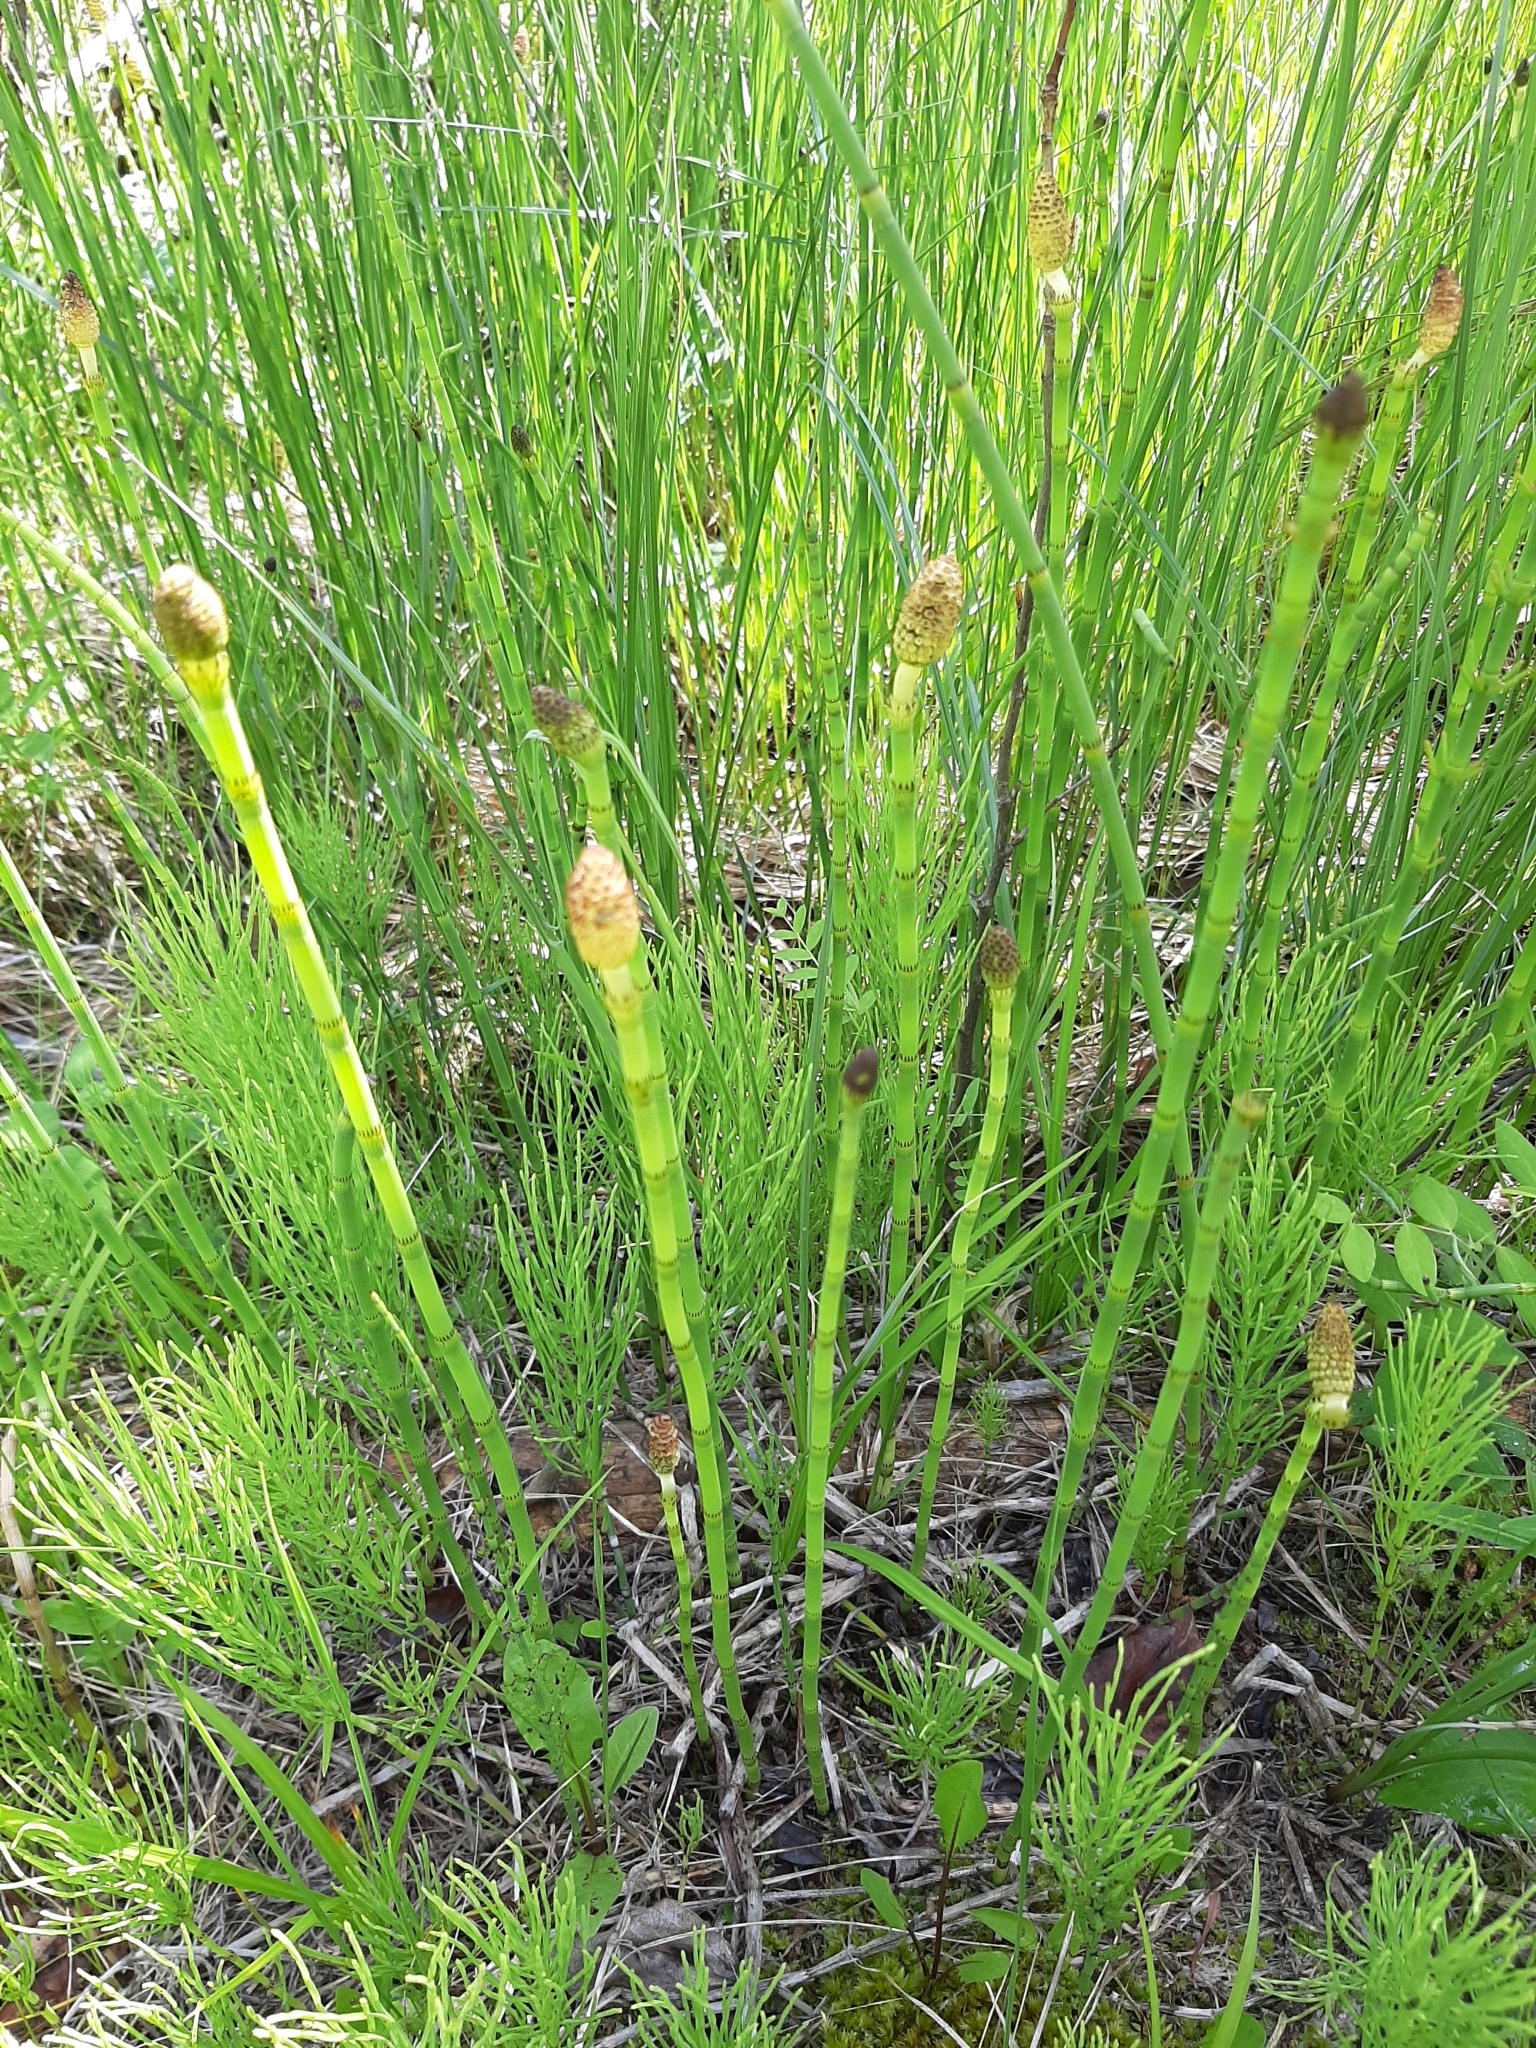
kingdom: Plantae
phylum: Tracheophyta
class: Polypodiopsida
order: Equisetales
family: Equisetaceae
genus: Equisetum
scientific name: Equisetum fluviatile
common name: Water horsetail
